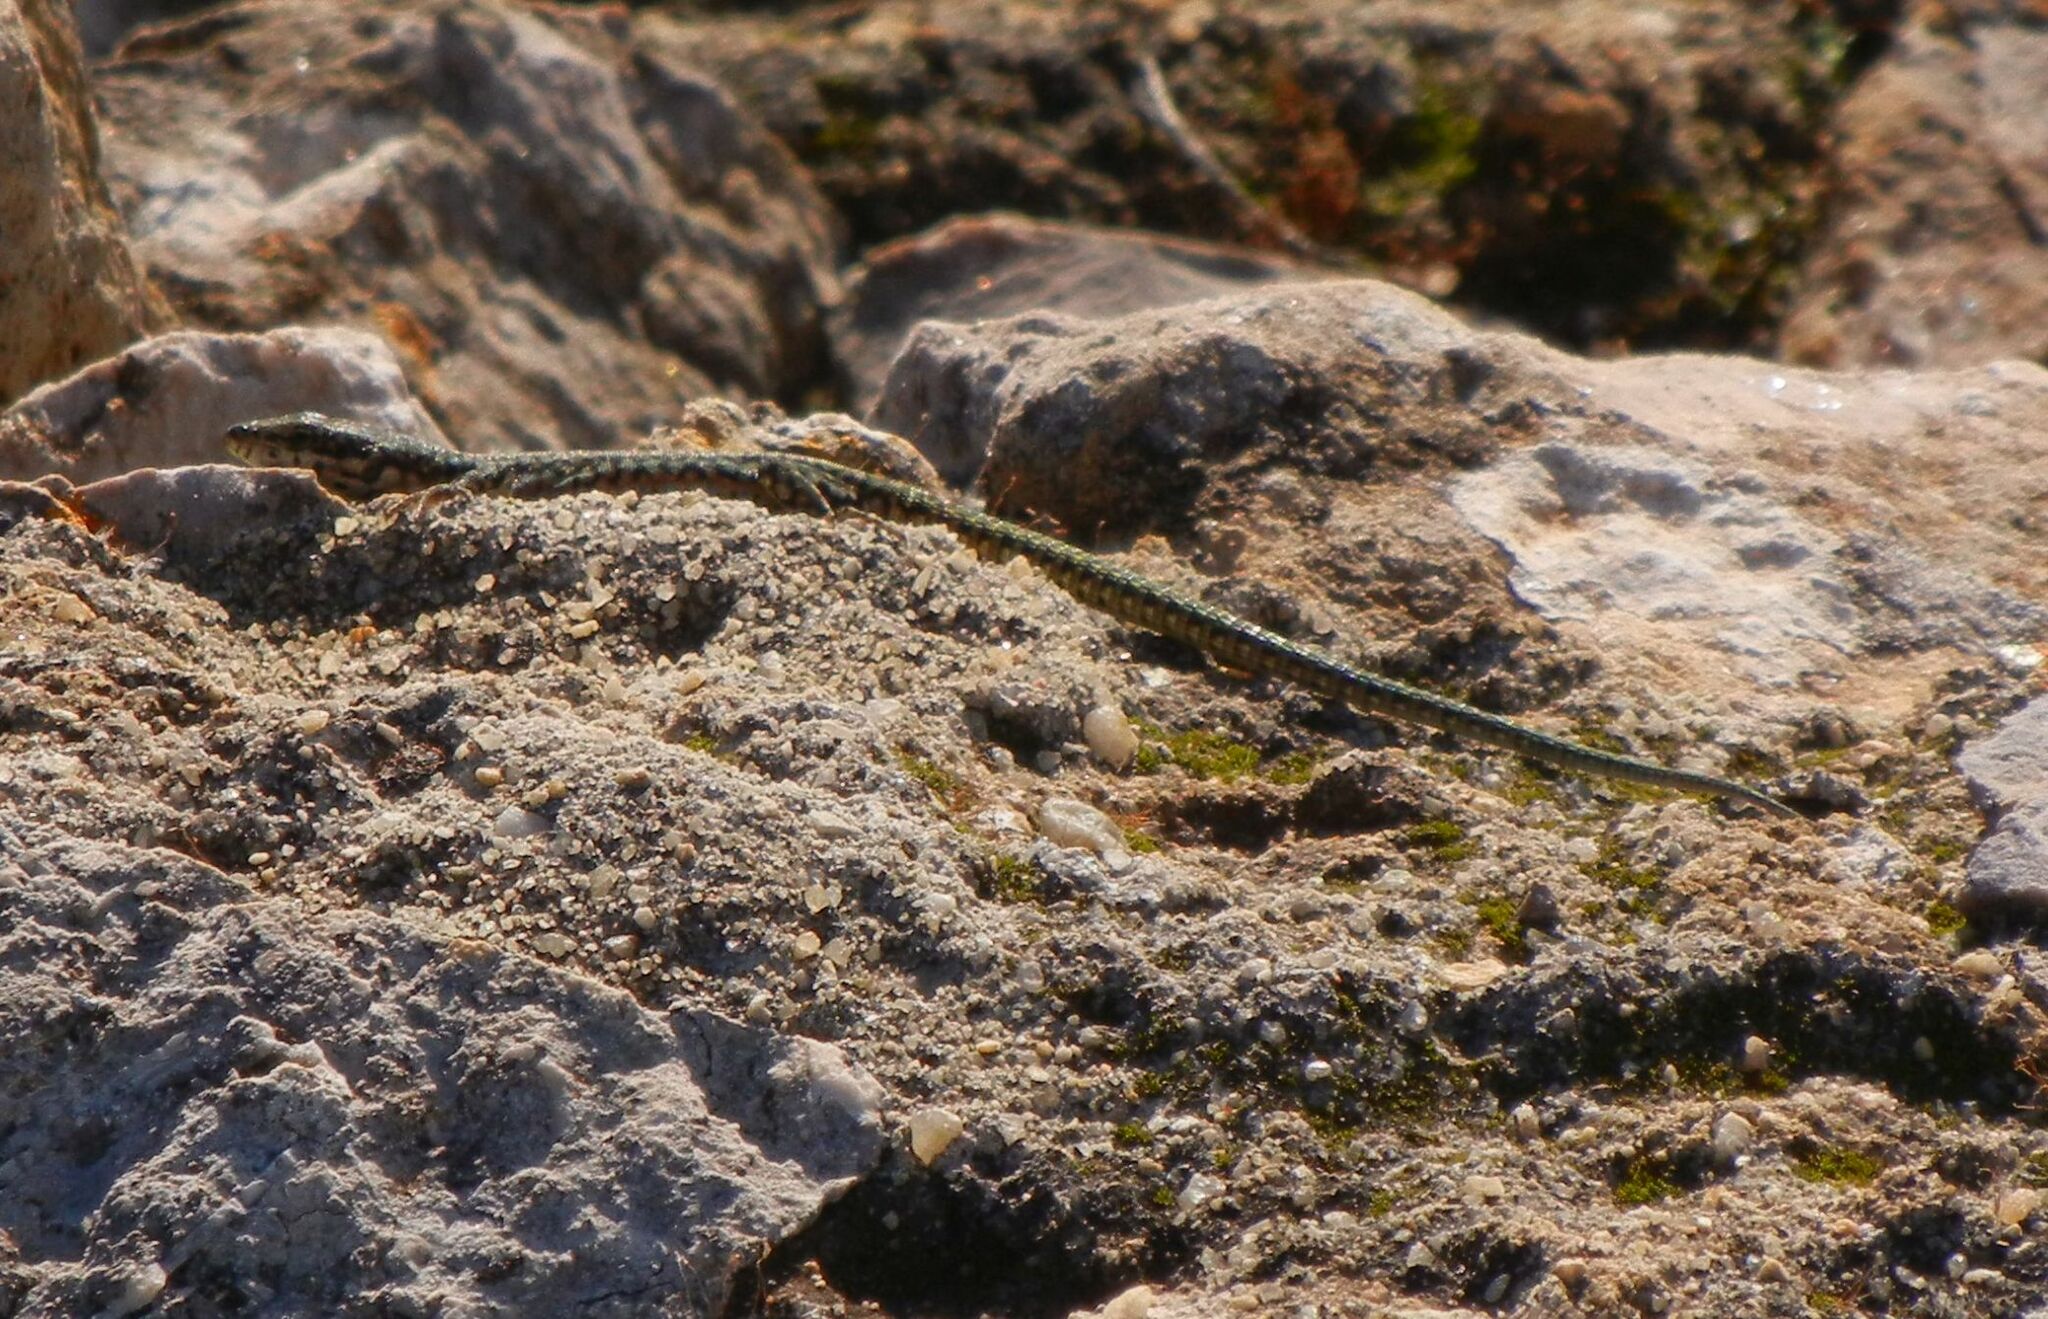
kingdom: Animalia
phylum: Chordata
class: Squamata
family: Lacertidae
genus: Podarcis
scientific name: Podarcis virescens
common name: Geniez’s wall lizard
